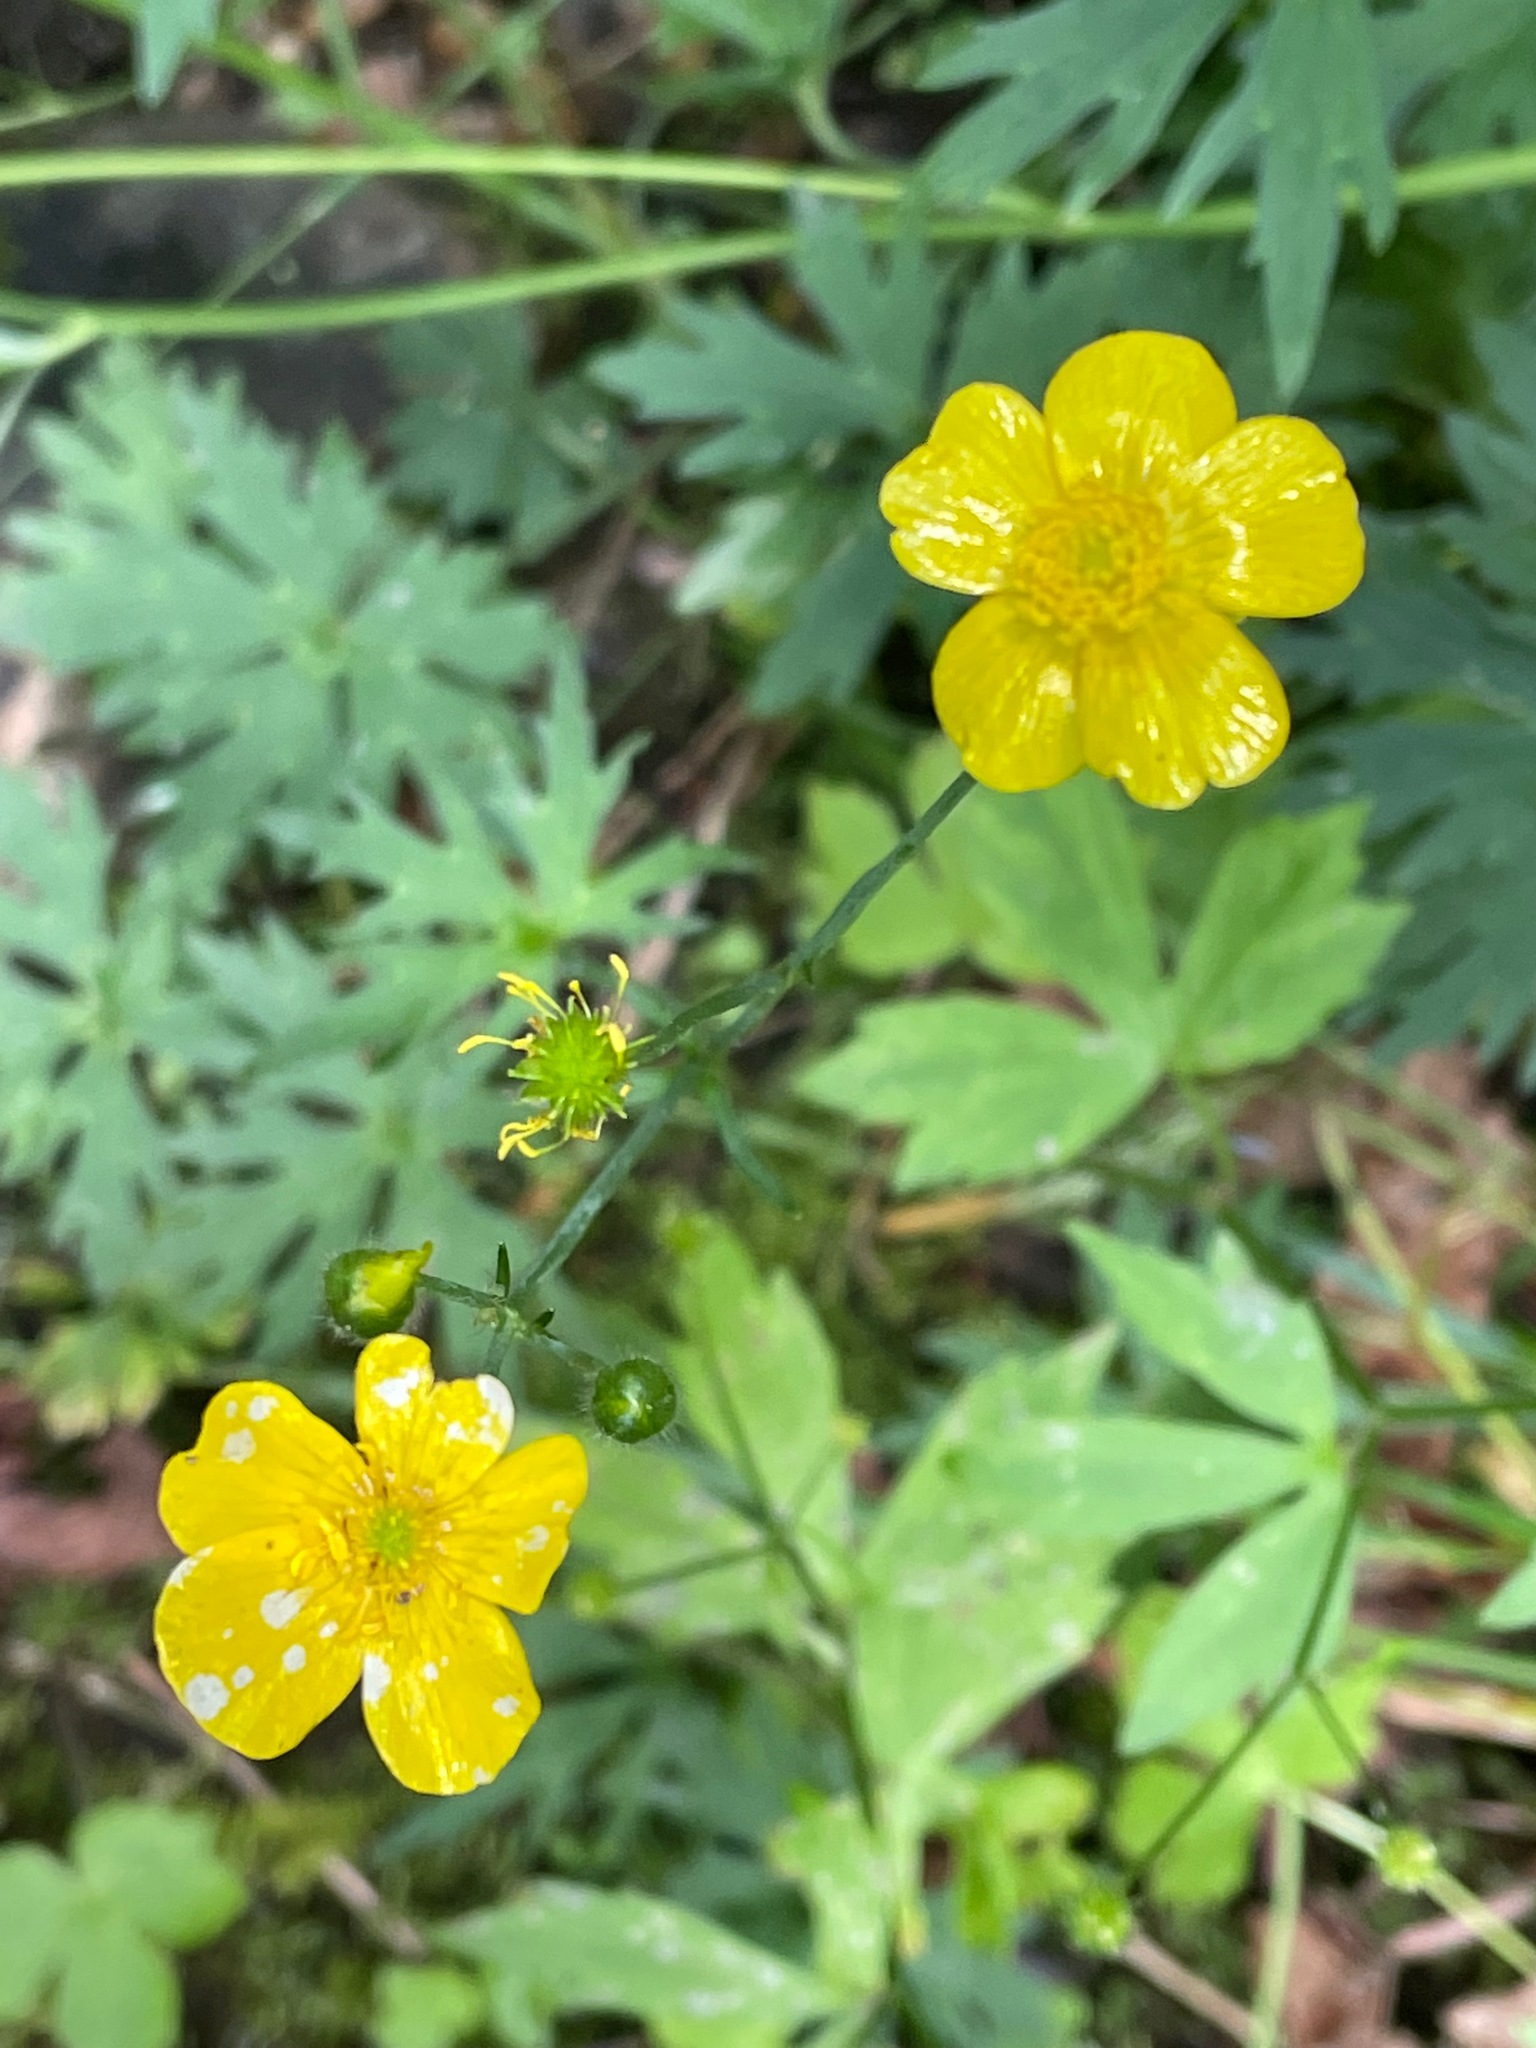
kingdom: Plantae
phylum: Tracheophyta
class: Magnoliopsida
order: Ranunculales
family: Ranunculaceae
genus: Ranunculus
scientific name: Ranunculus acris
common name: Meadow buttercup
